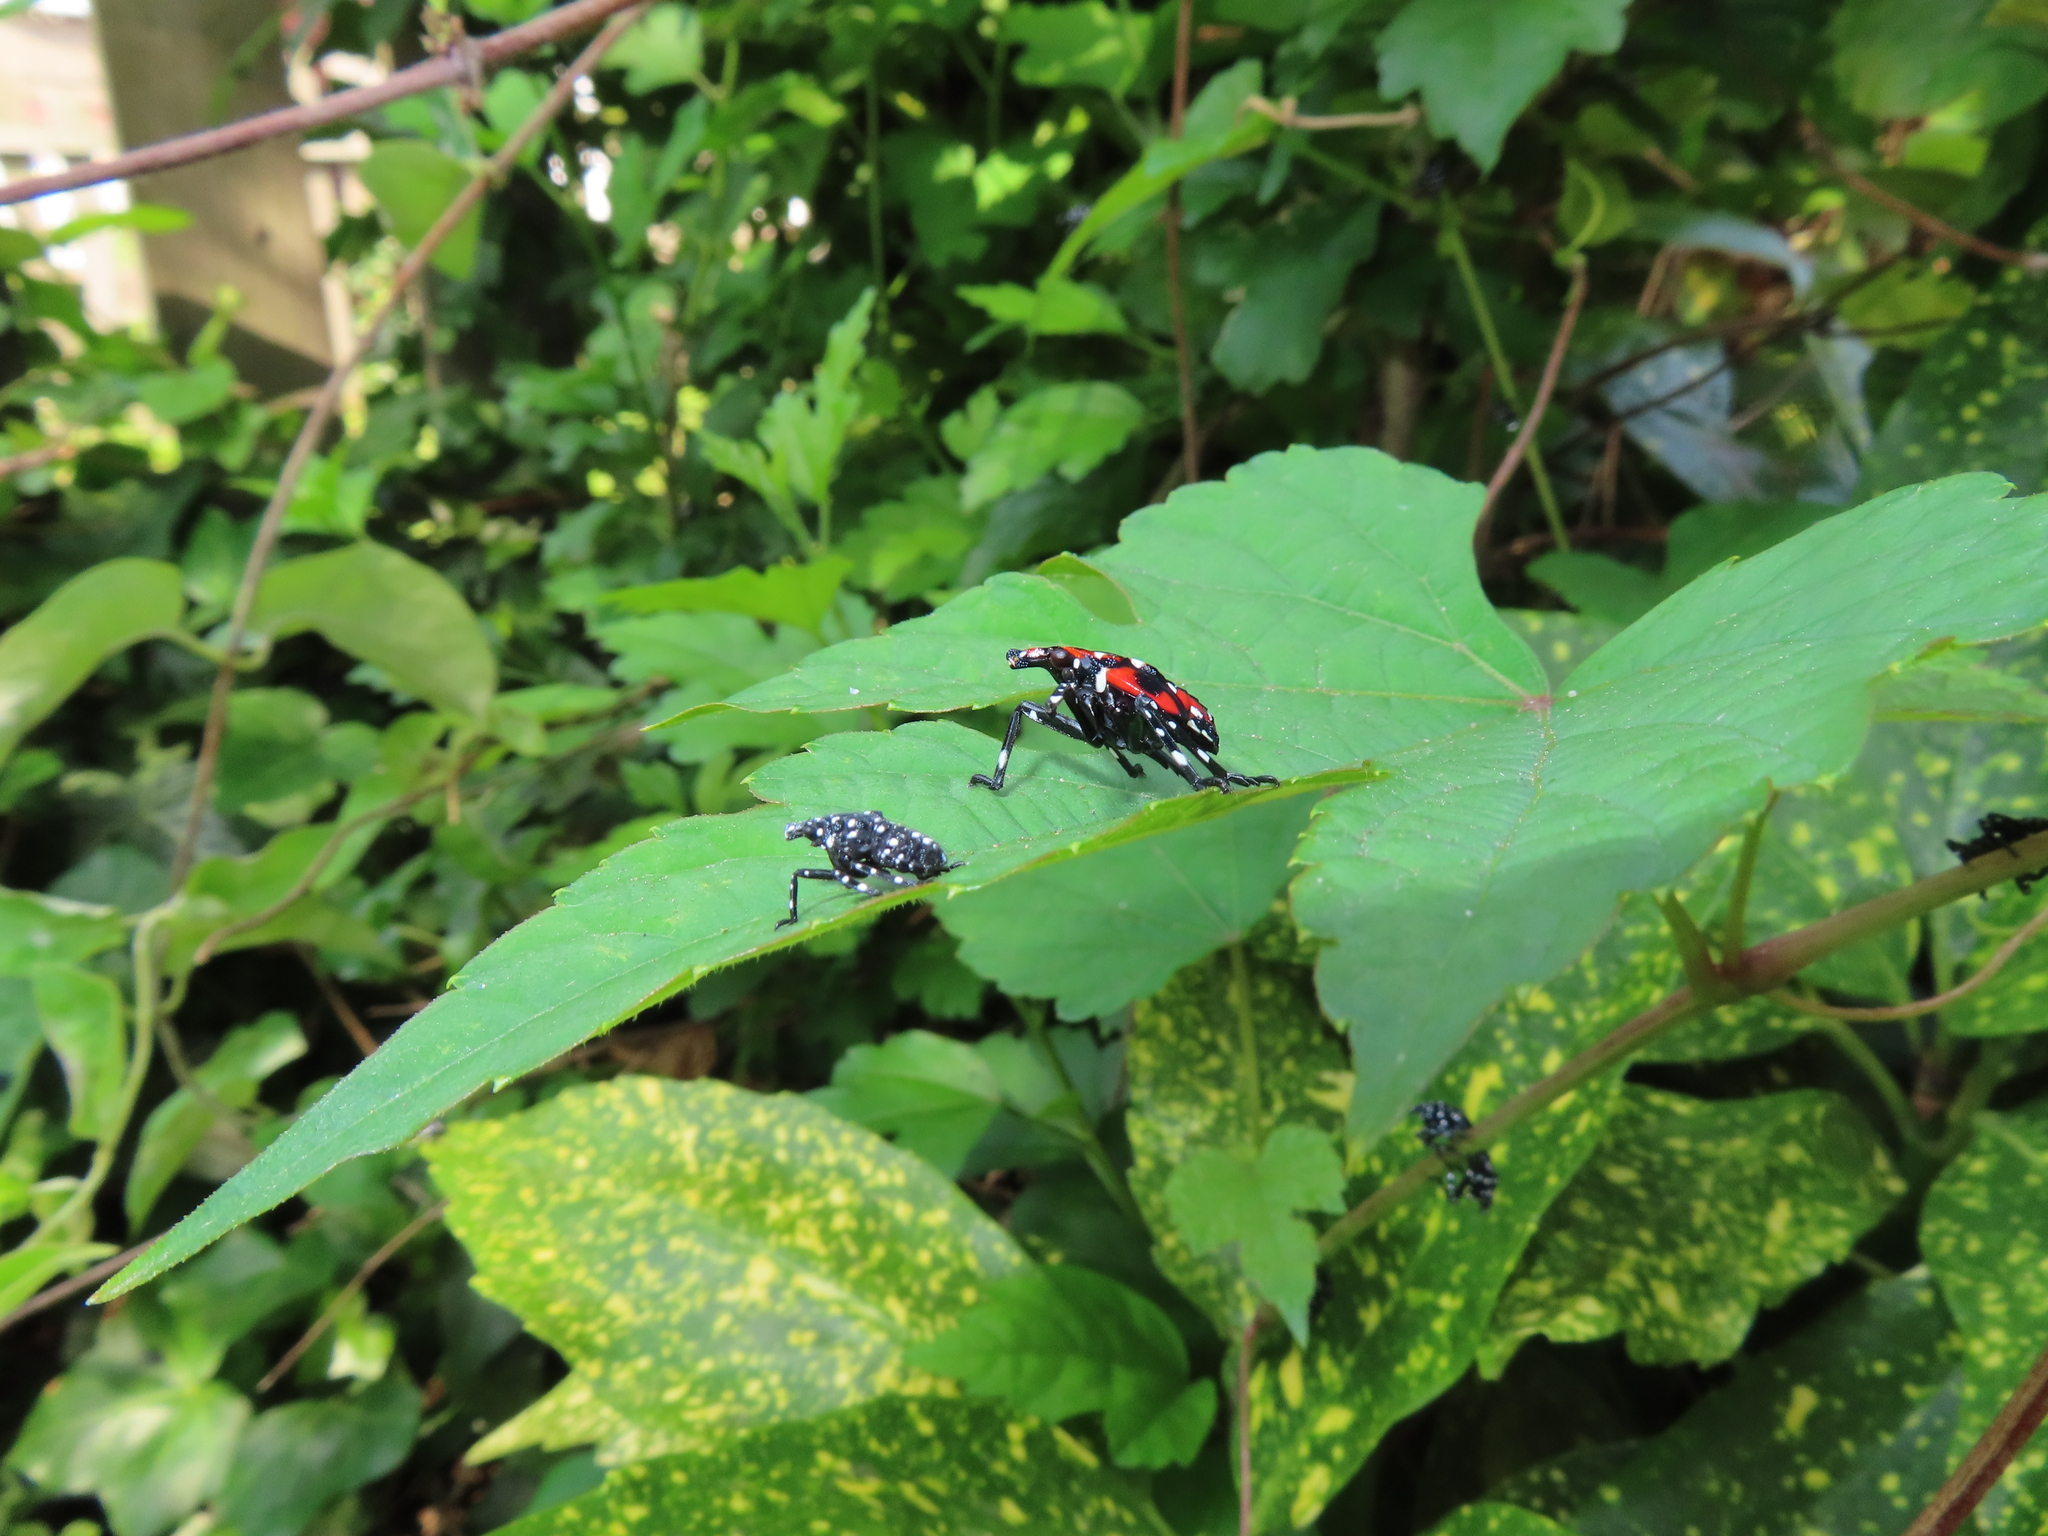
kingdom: Animalia
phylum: Arthropoda
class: Insecta
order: Hemiptera
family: Fulgoridae
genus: Lycorma
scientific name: Lycorma delicatula
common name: Spotted lanternfly
